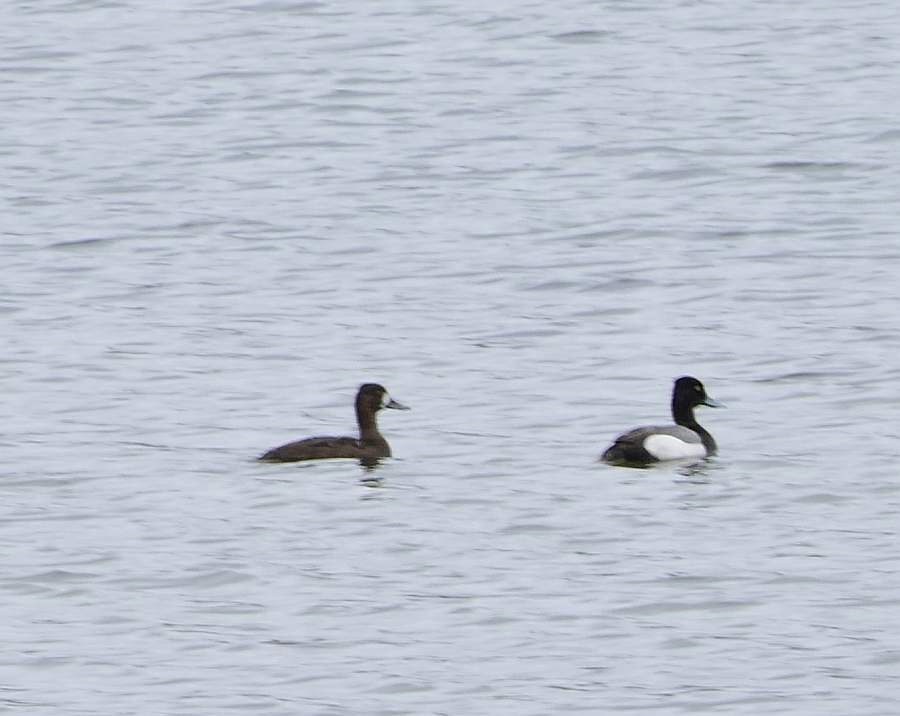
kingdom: Animalia
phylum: Chordata
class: Aves
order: Anseriformes
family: Anatidae
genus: Aythya
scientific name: Aythya affinis
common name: Lesser scaup
